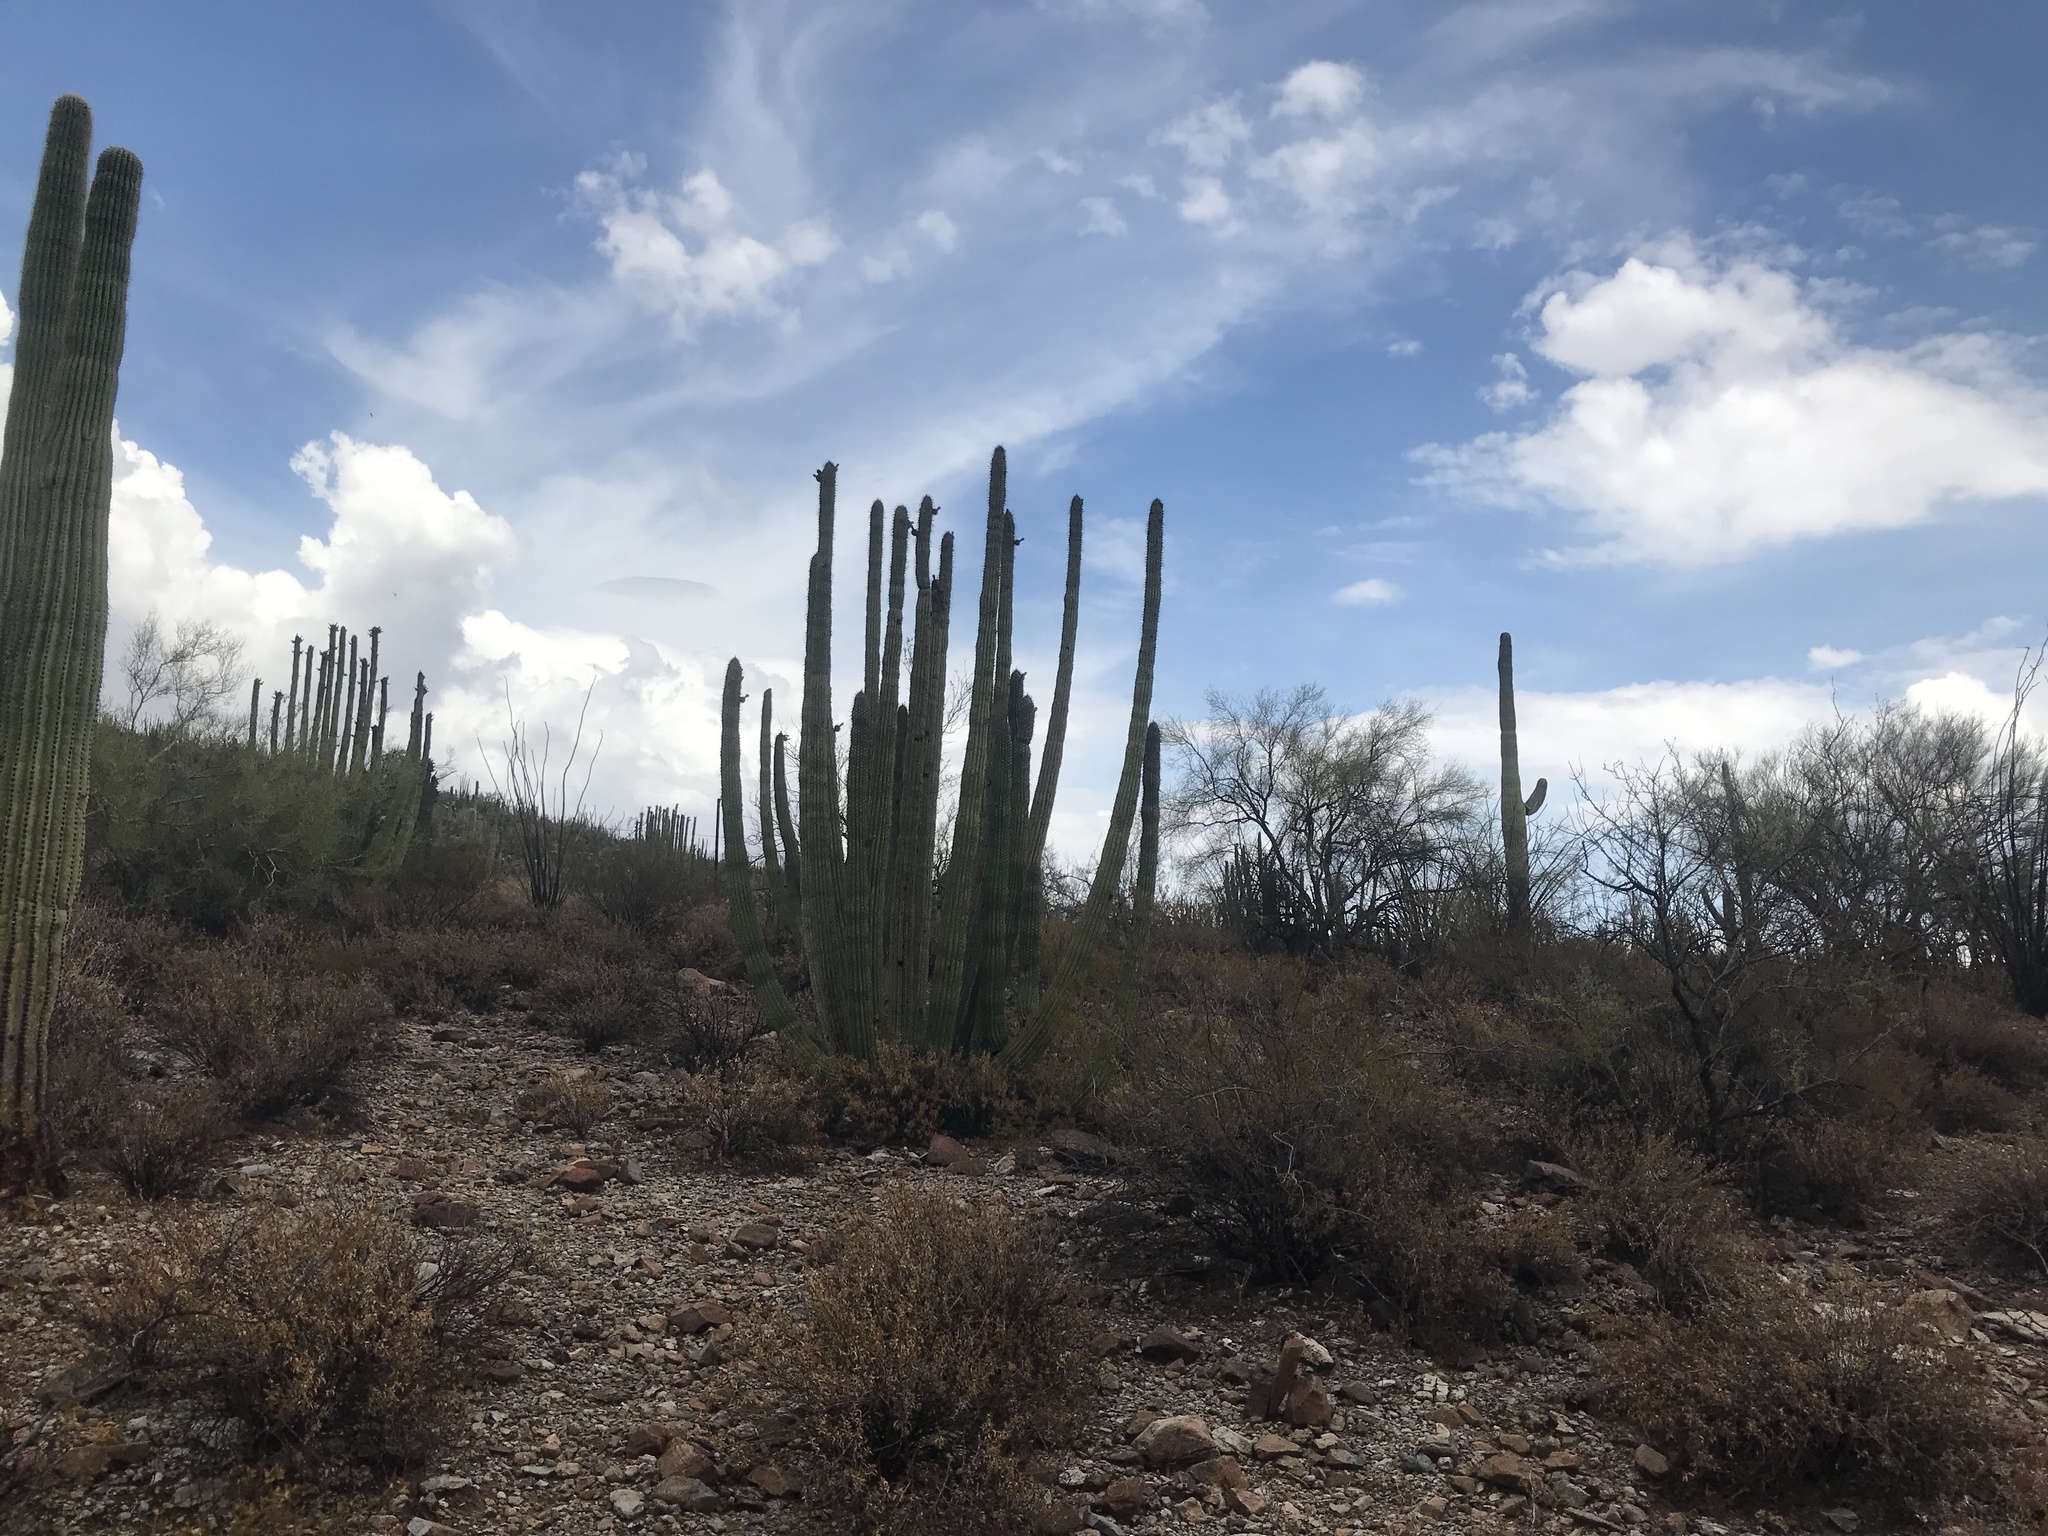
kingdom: Plantae
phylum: Tracheophyta
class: Magnoliopsida
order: Caryophyllales
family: Cactaceae
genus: Stenocereus
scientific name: Stenocereus thurberi
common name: Organ pipe cactus
